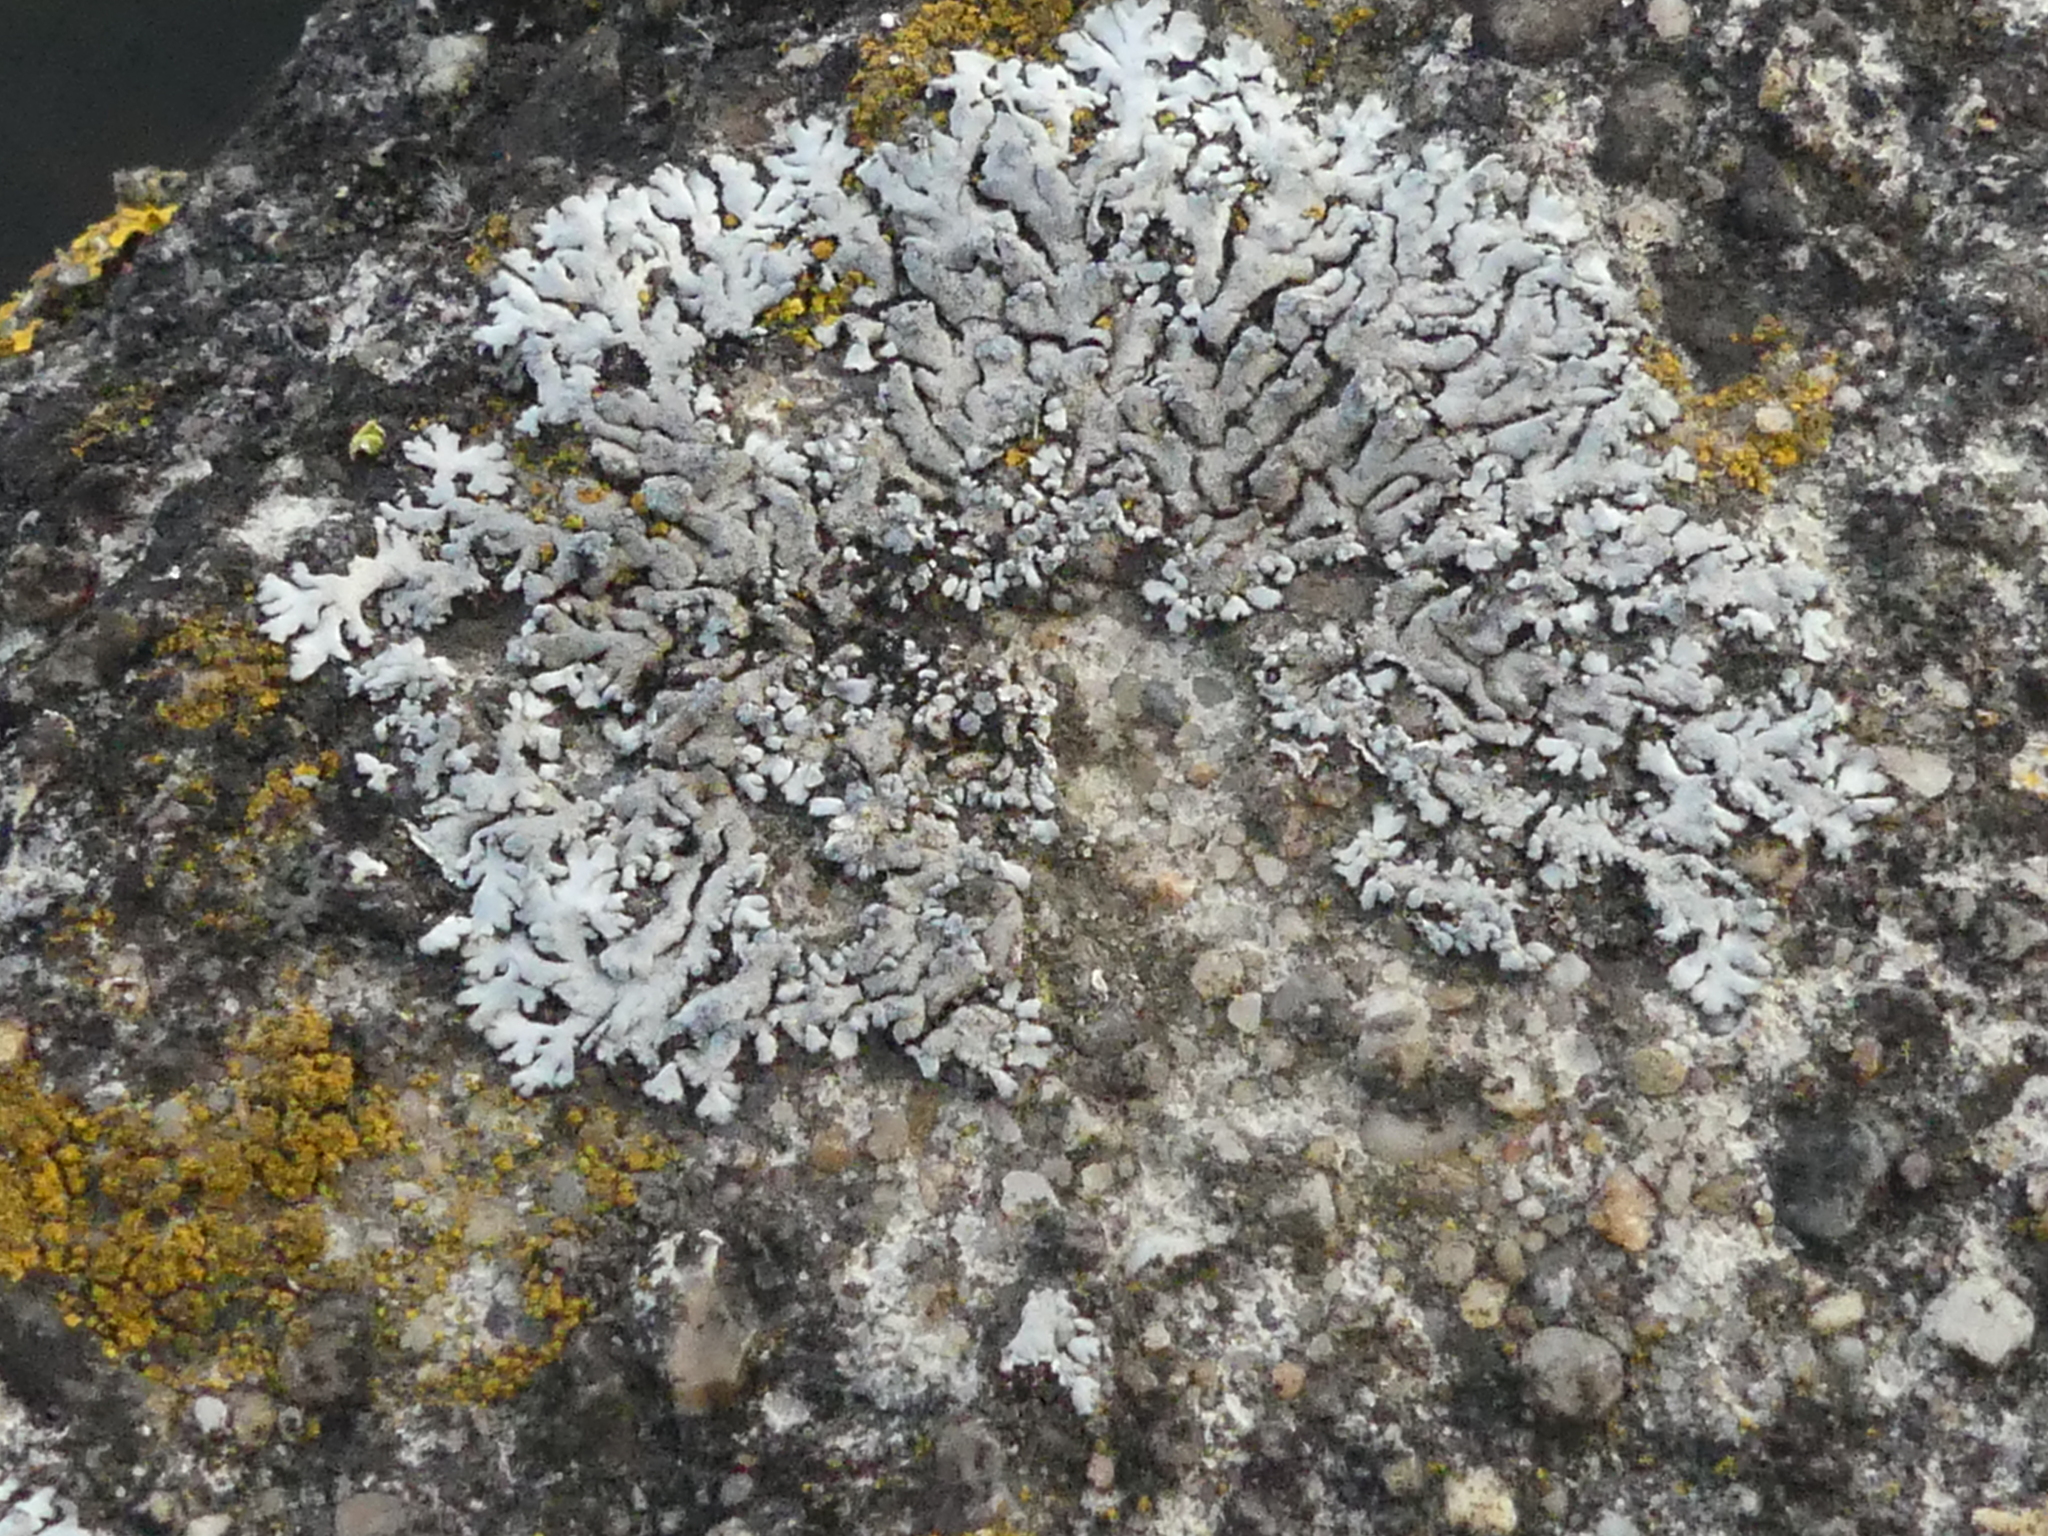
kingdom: Fungi
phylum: Ascomycota
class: Lecanoromycetes
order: Caliciales
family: Physciaceae
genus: Physcia
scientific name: Physcia caesia
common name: Blue-gray rosette lichen
